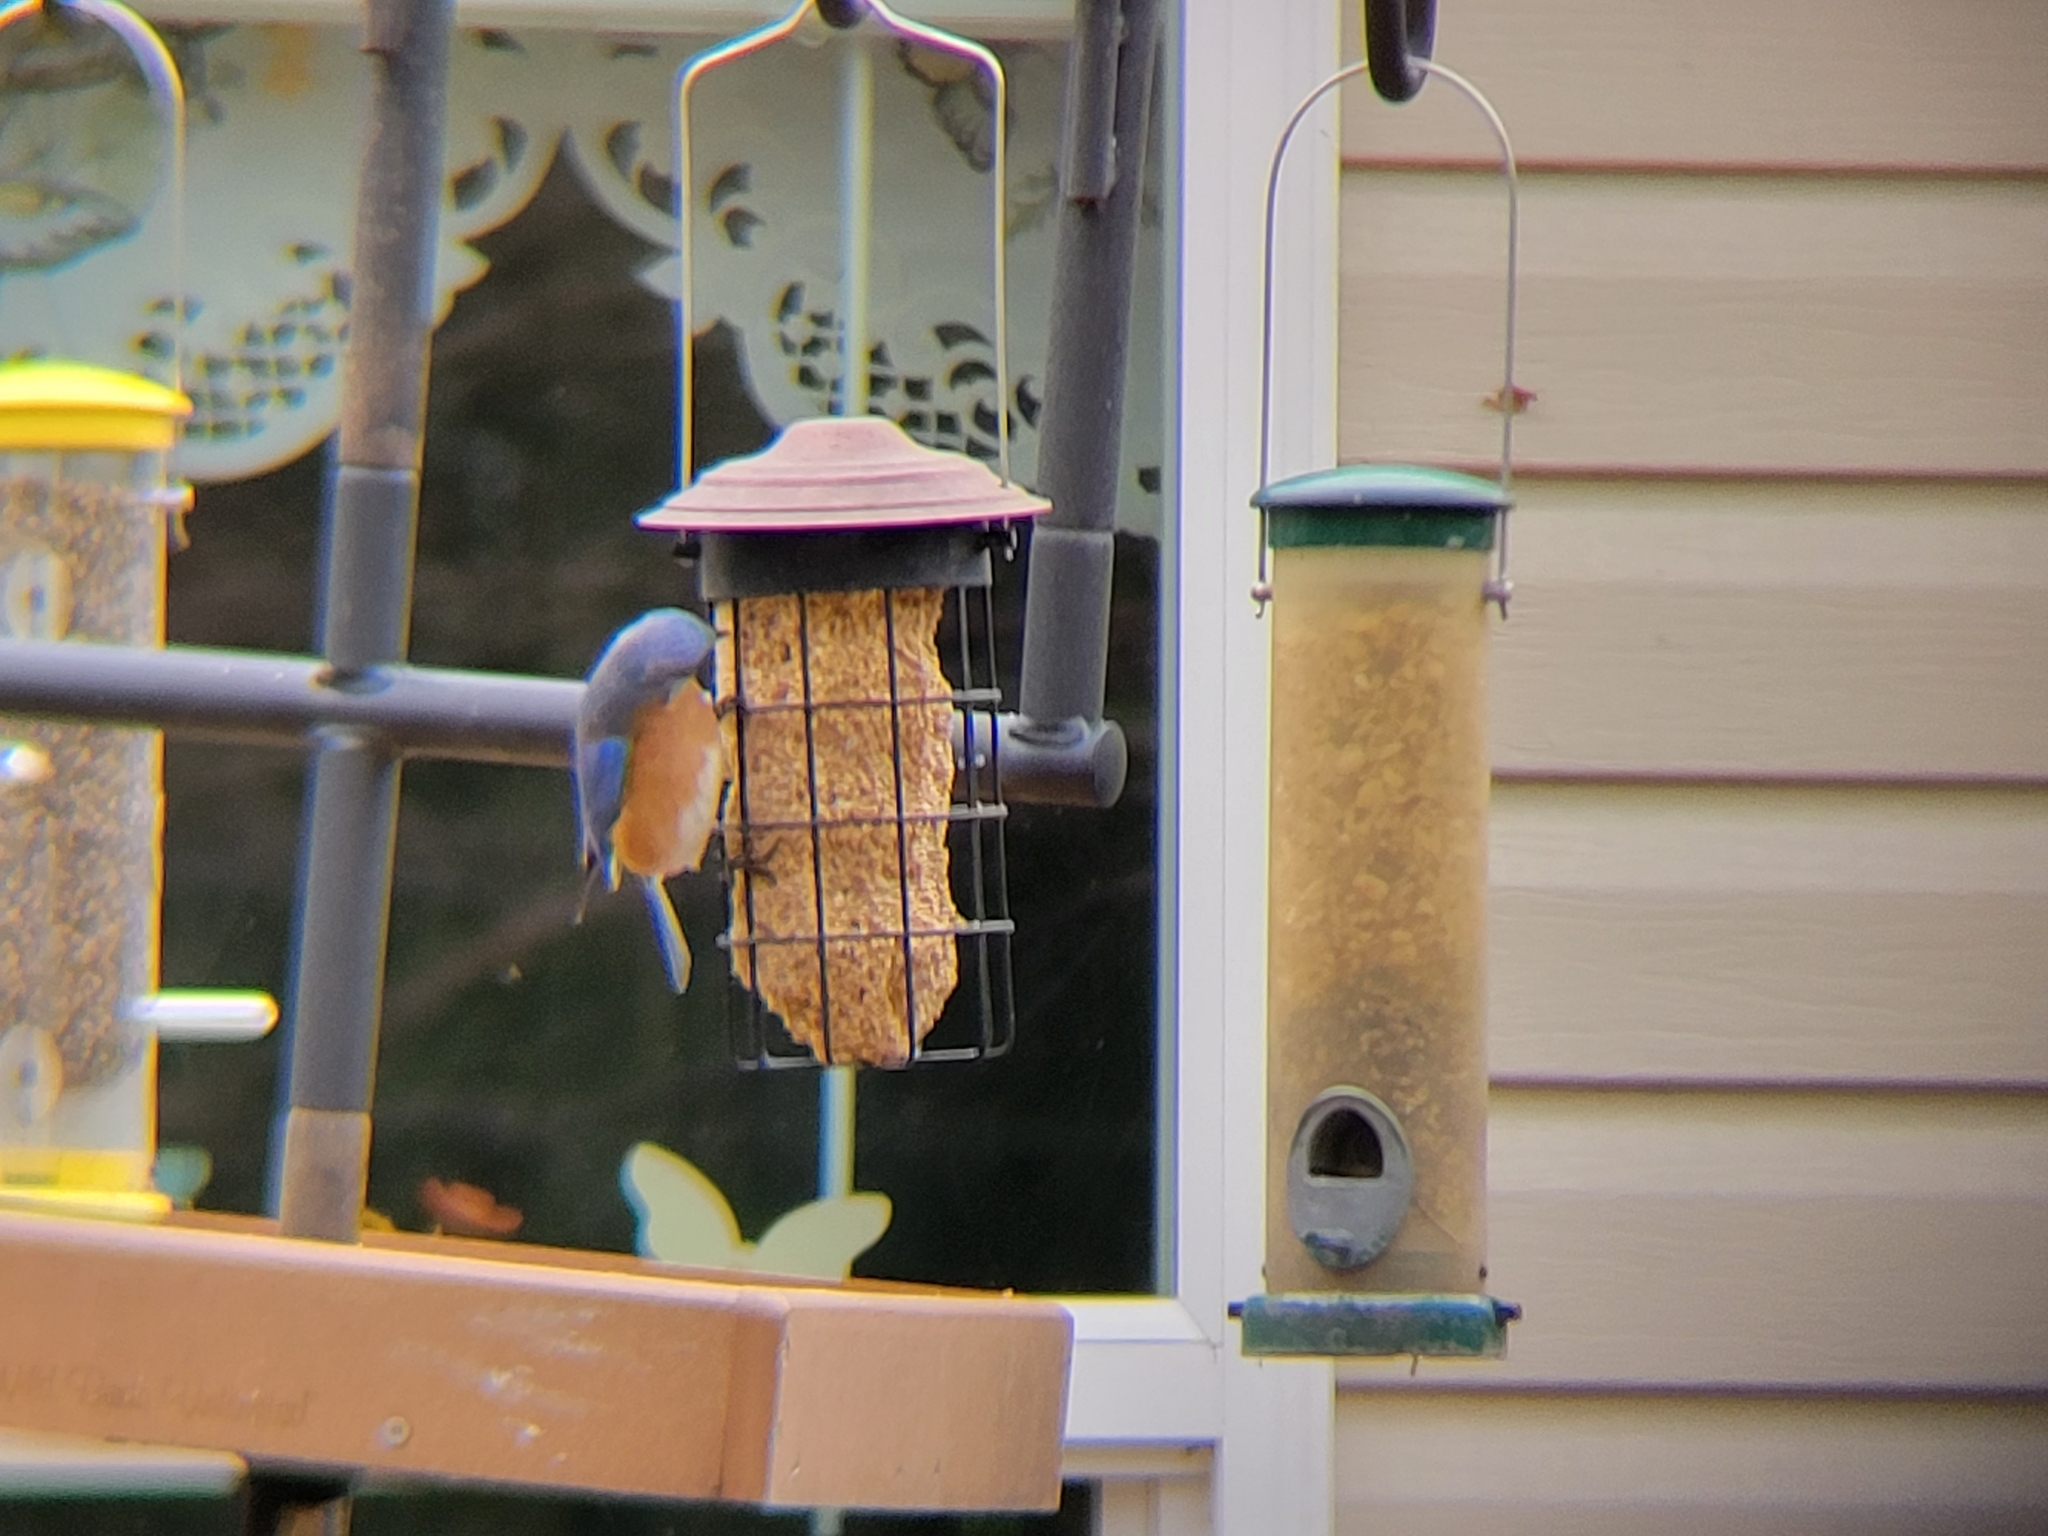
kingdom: Animalia
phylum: Chordata
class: Aves
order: Passeriformes
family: Turdidae
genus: Sialia
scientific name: Sialia sialis
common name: Eastern bluebird
